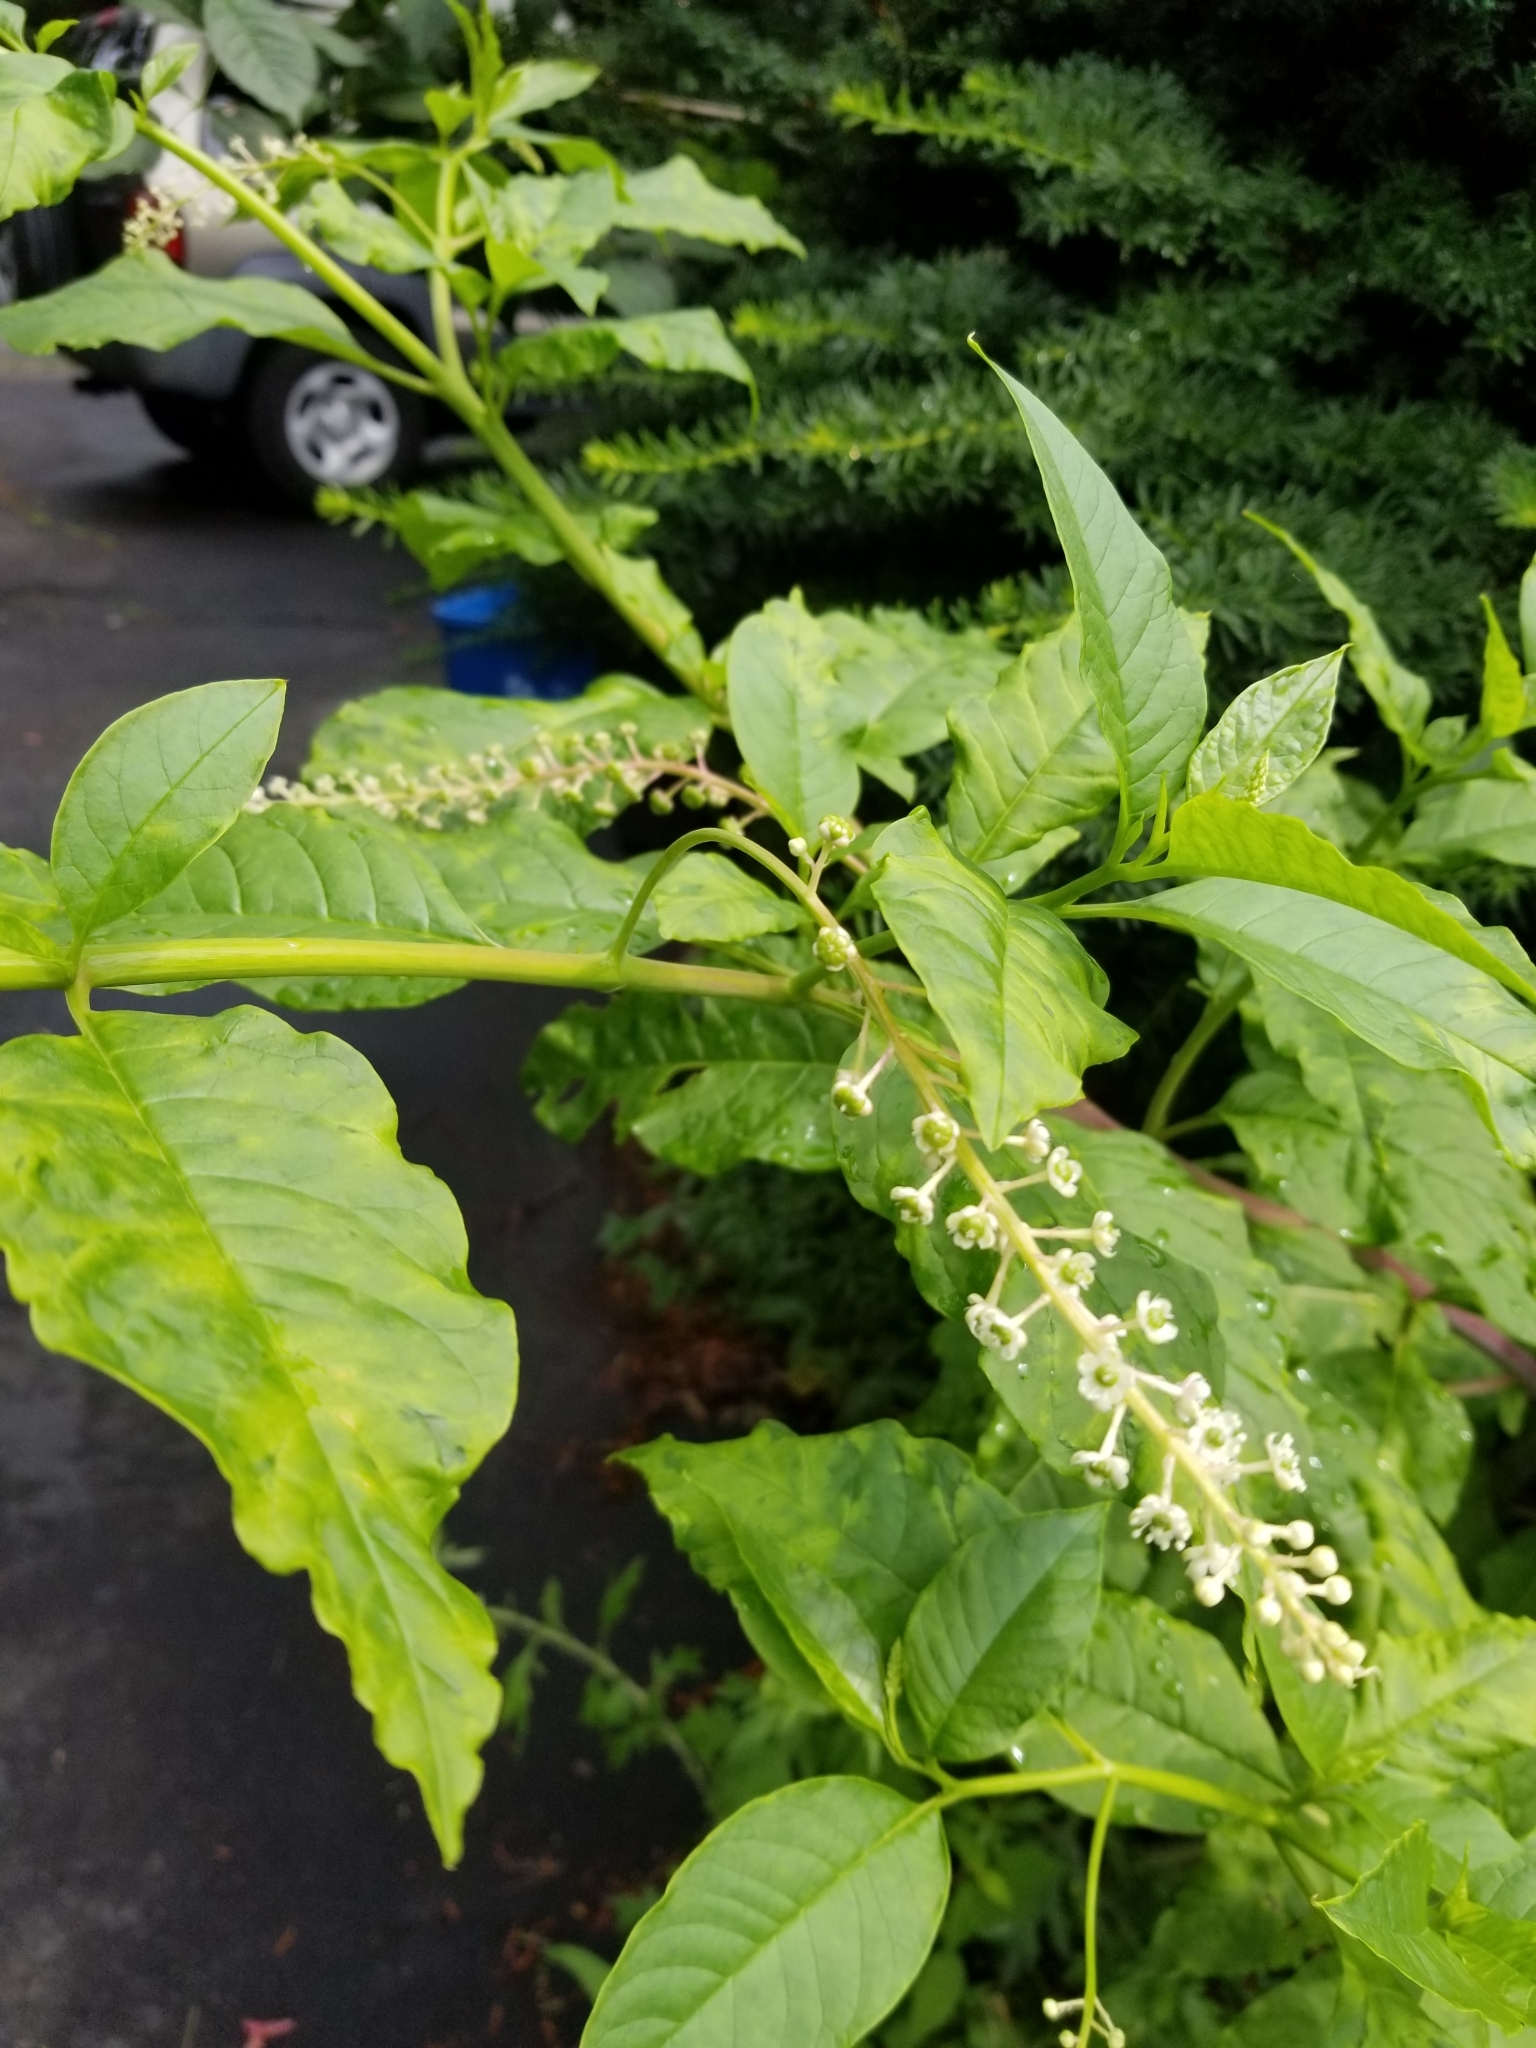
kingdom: Plantae
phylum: Tracheophyta
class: Magnoliopsida
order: Caryophyllales
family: Phytolaccaceae
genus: Phytolacca
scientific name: Phytolacca americana
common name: American pokeweed
